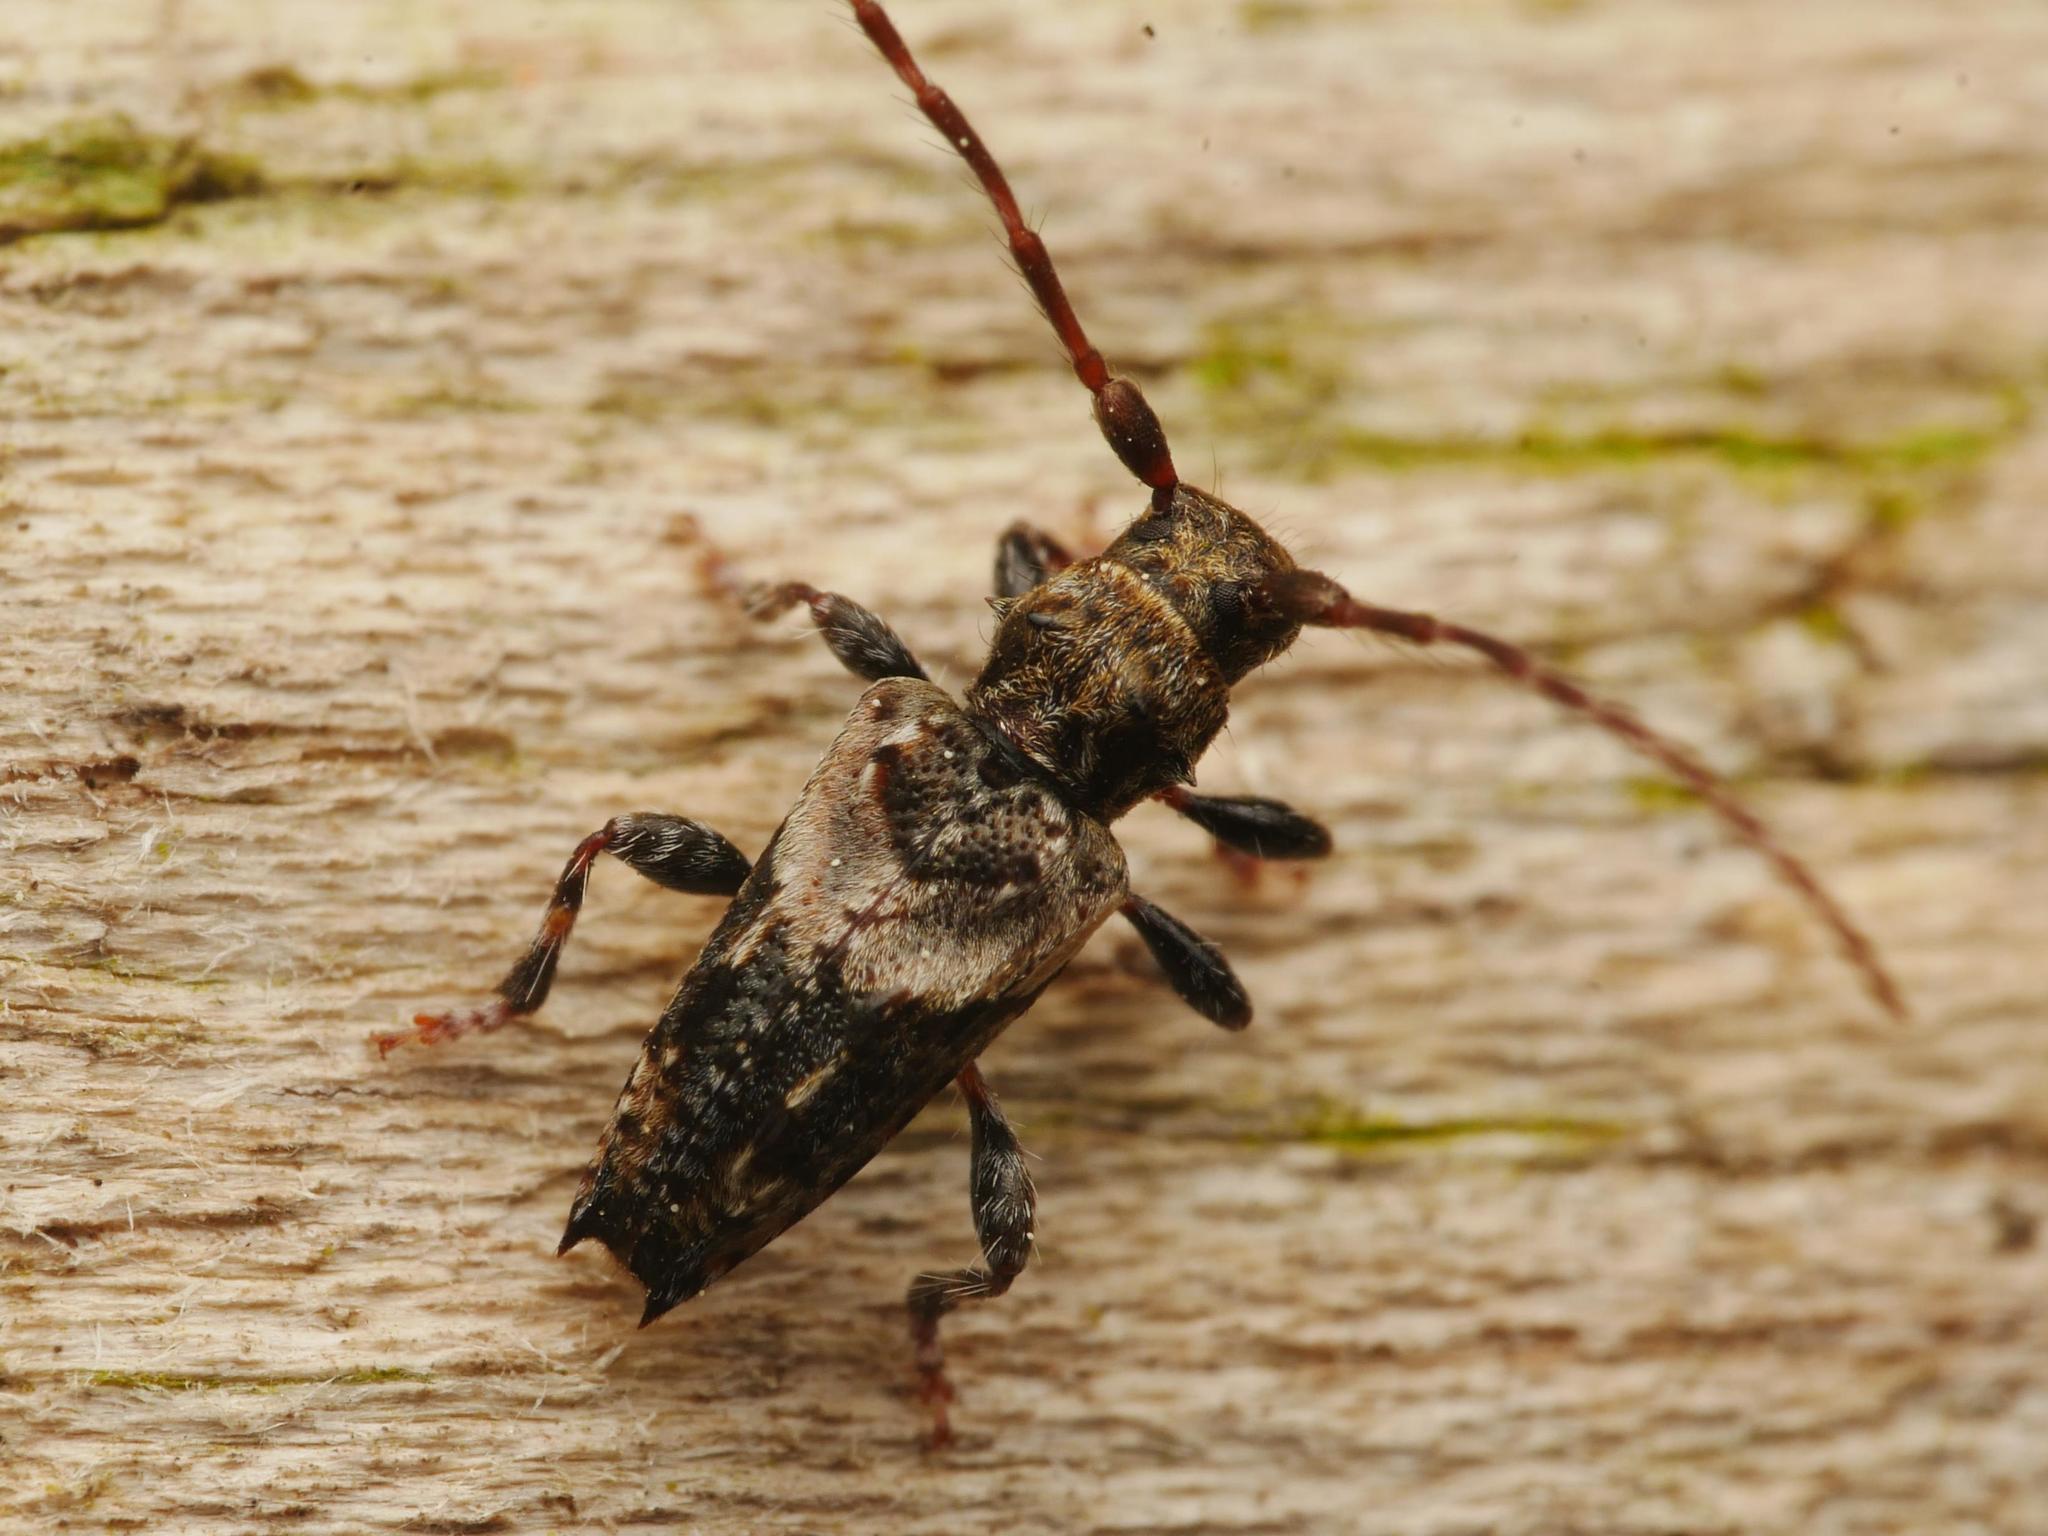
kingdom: Animalia
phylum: Arthropoda
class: Insecta
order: Coleoptera
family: Cerambycidae
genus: Pogonocherus
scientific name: Pogonocherus hispidus
